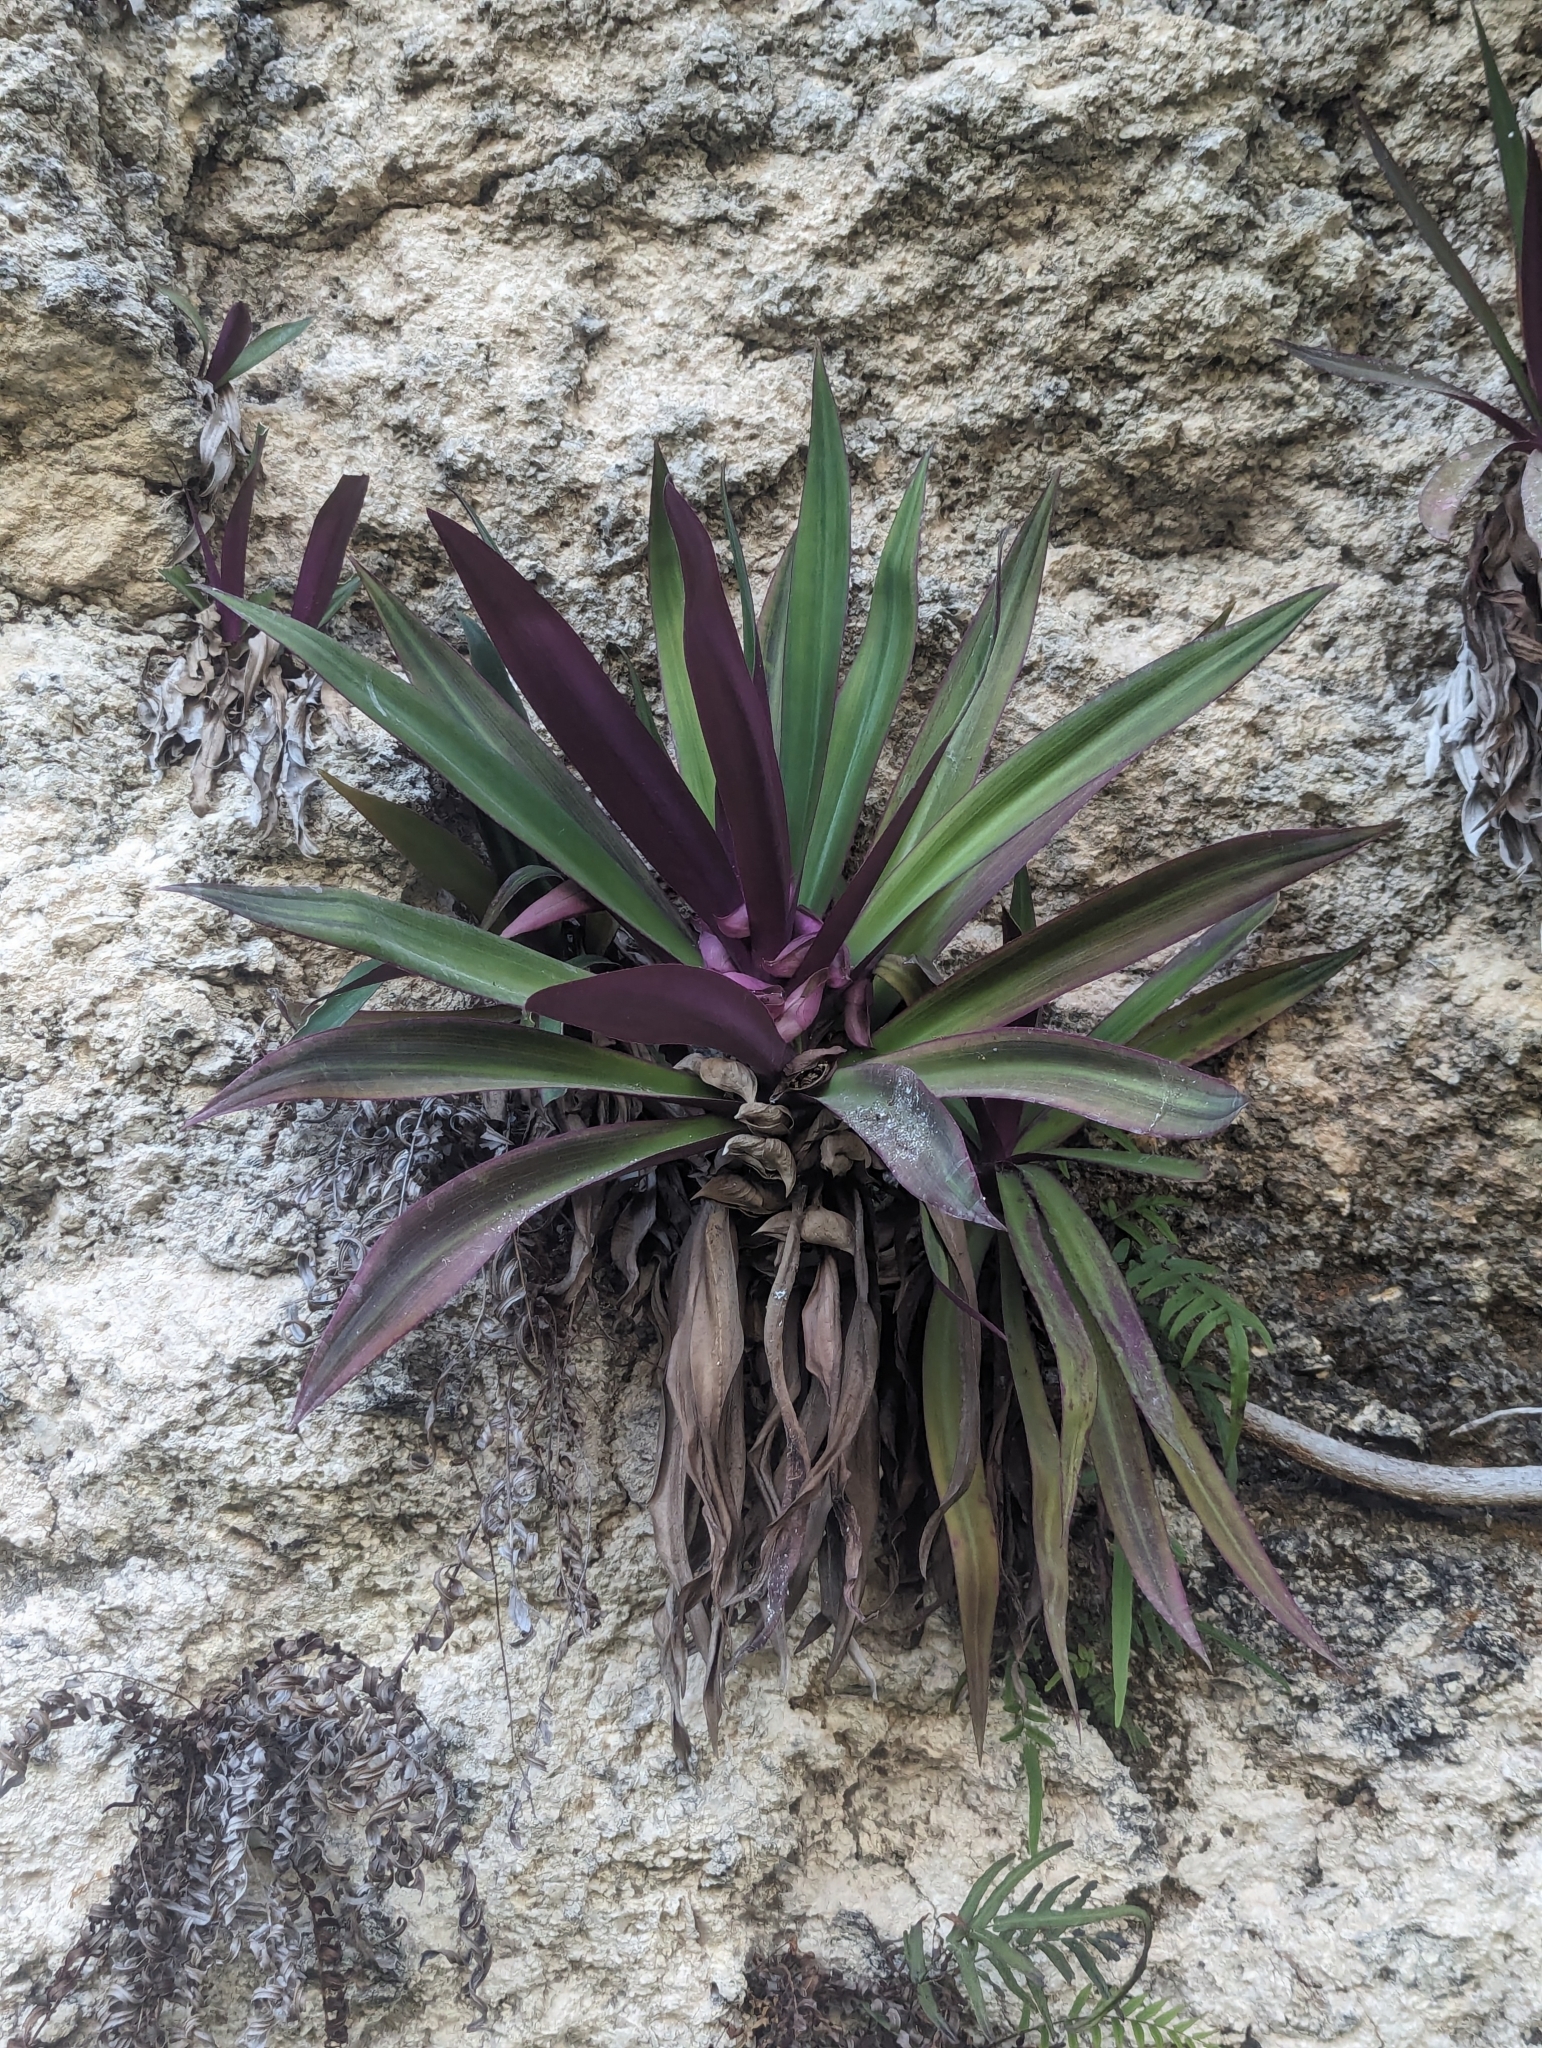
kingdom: Plantae
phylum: Tracheophyta
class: Liliopsida
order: Commelinales
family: Commelinaceae
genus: Tradescantia
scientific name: Tradescantia spathacea
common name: Boatlily
